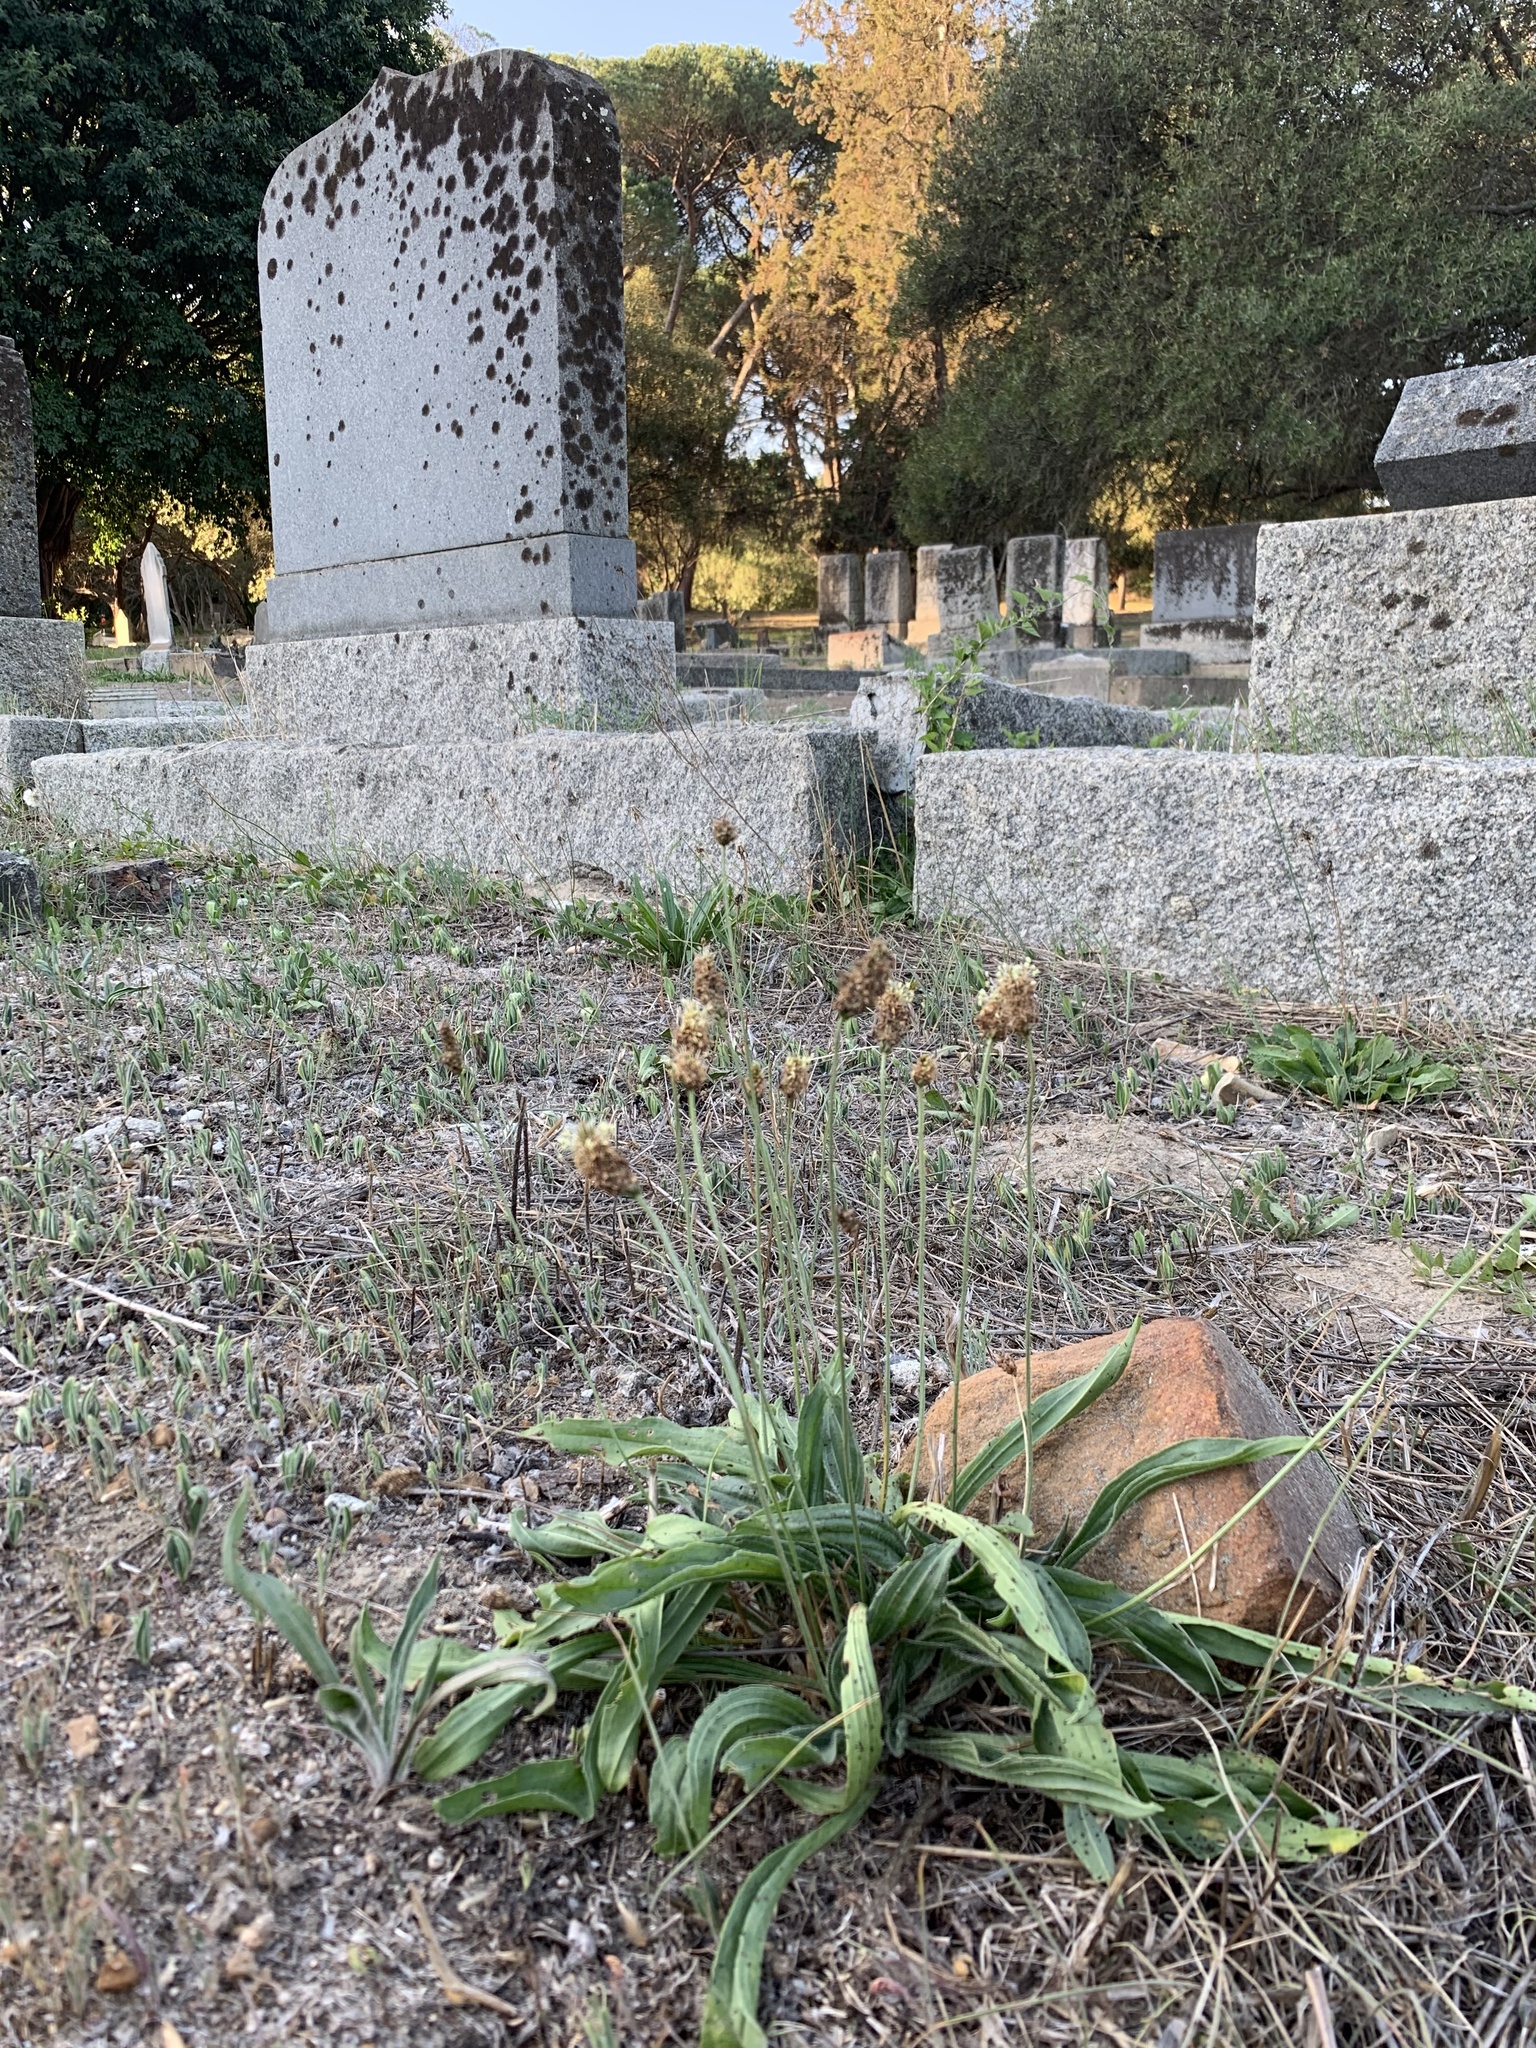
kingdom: Plantae
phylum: Tracheophyta
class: Magnoliopsida
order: Lamiales
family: Plantaginaceae
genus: Plantago
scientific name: Plantago lanceolata
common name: Ribwort plantain
